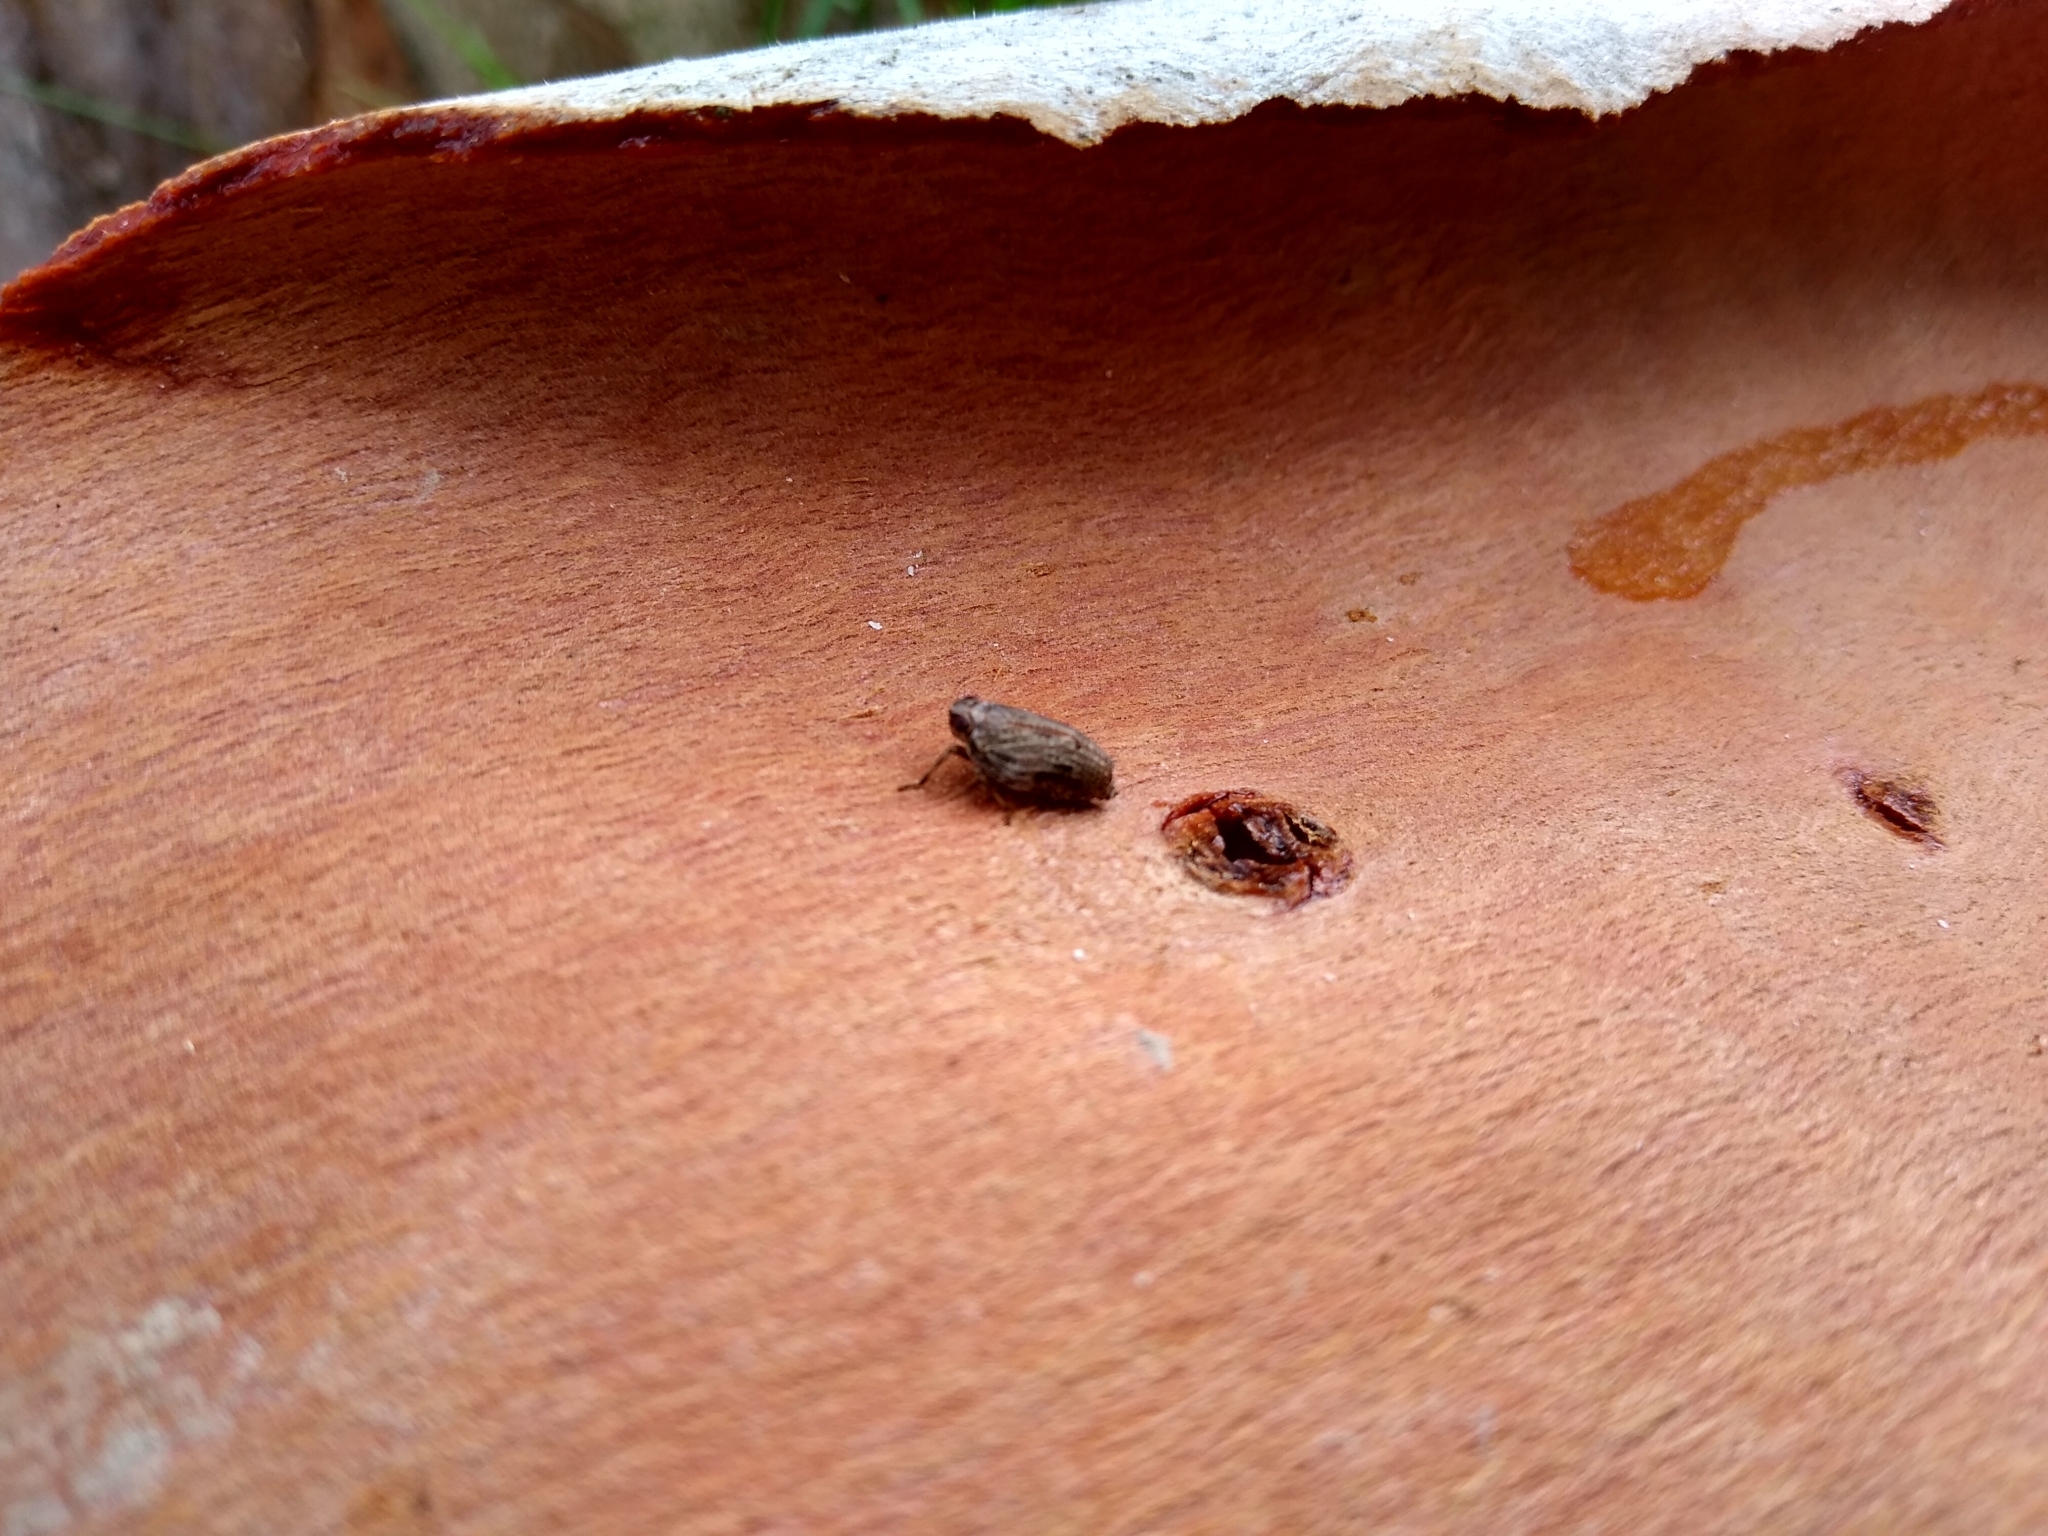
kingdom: Animalia
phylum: Arthropoda
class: Insecta
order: Hemiptera
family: Issidae
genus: Issus
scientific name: Issus coleoptratus
